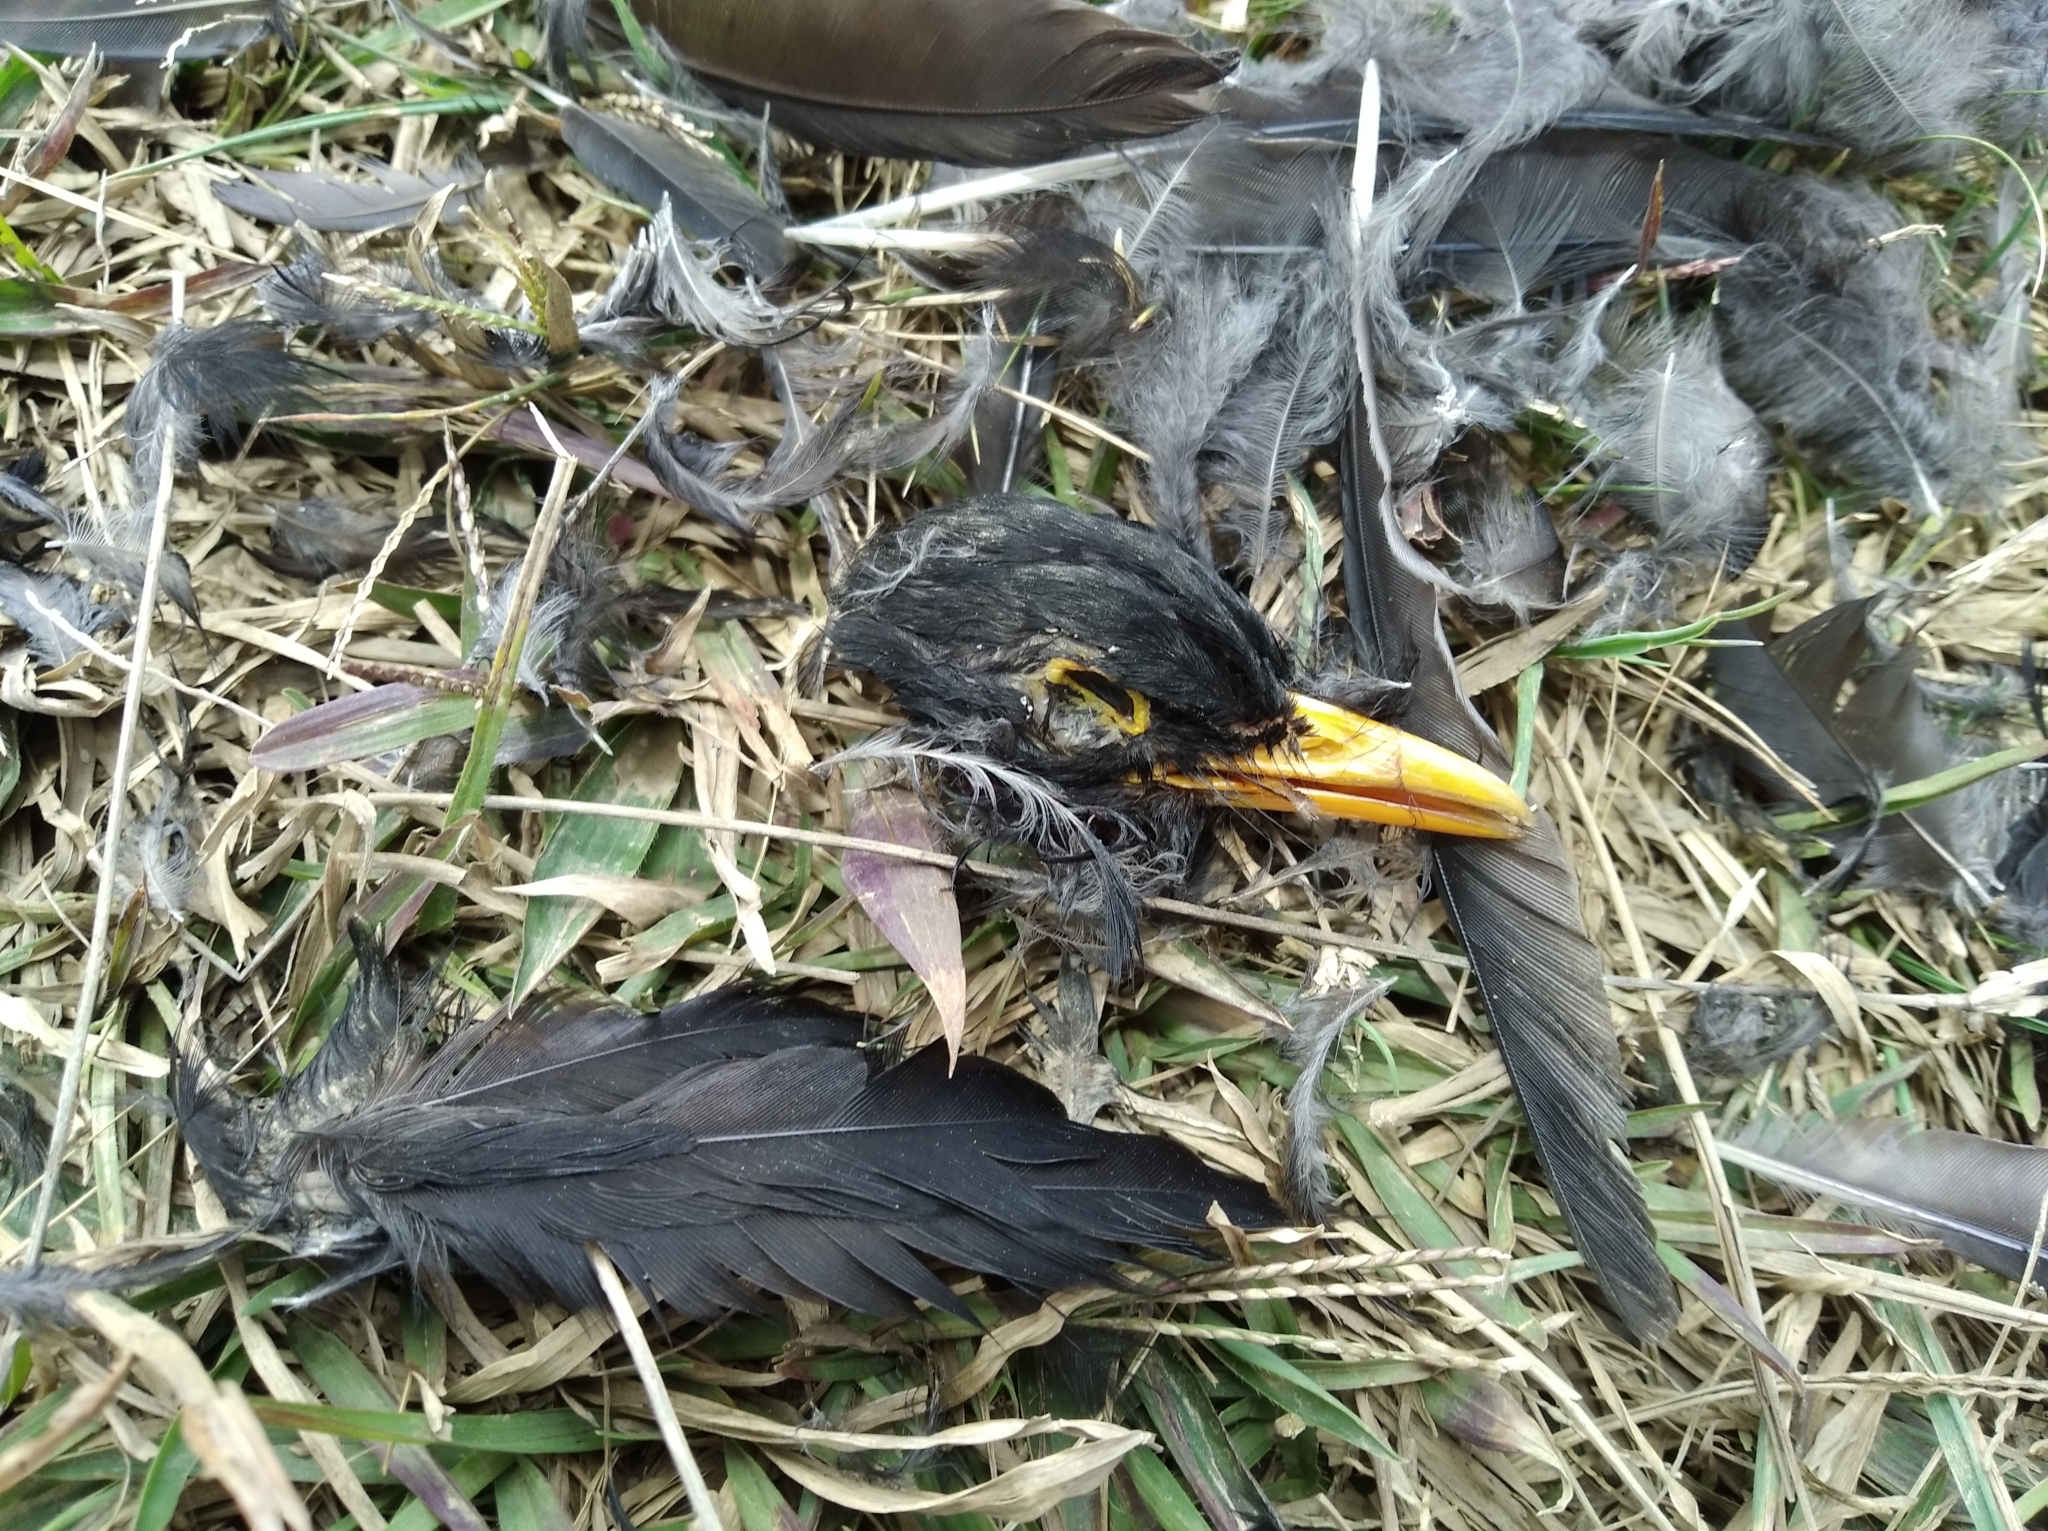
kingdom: Animalia
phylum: Chordata
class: Aves
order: Passeriformes
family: Turdidae
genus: Turdus
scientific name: Turdus flavipes
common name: Yellow-legged thrush
